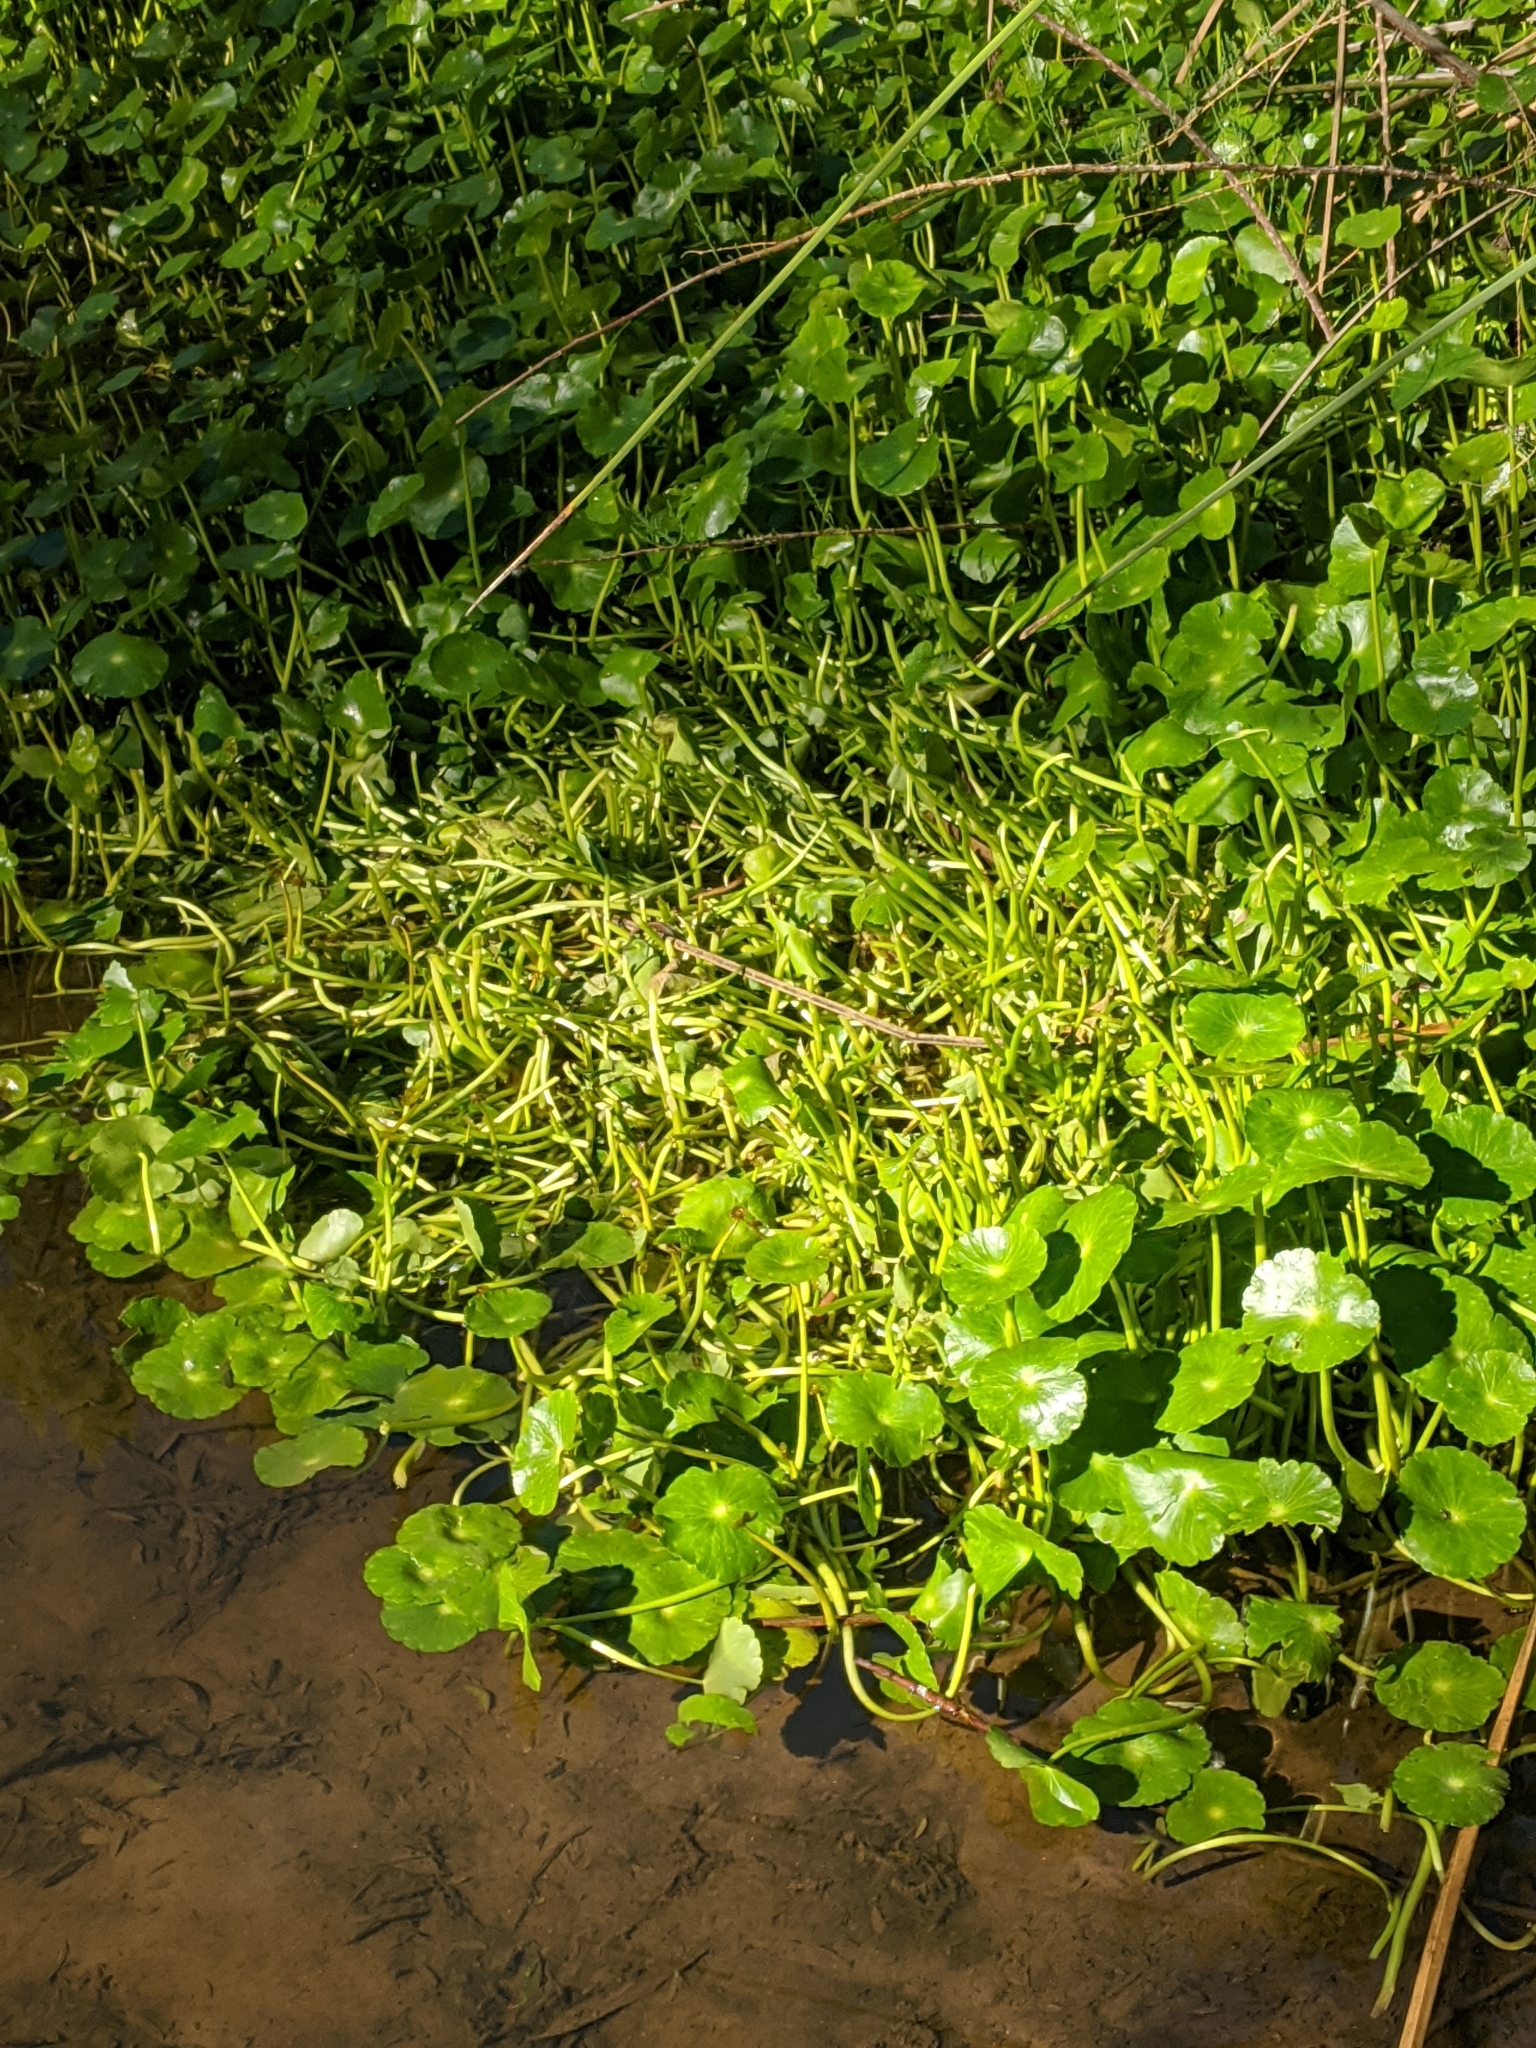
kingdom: Plantae
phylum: Tracheophyta
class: Magnoliopsida
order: Apiales
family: Araliaceae
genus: Hydrocotyle
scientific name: Hydrocotyle umbellata
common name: Water pennywort
